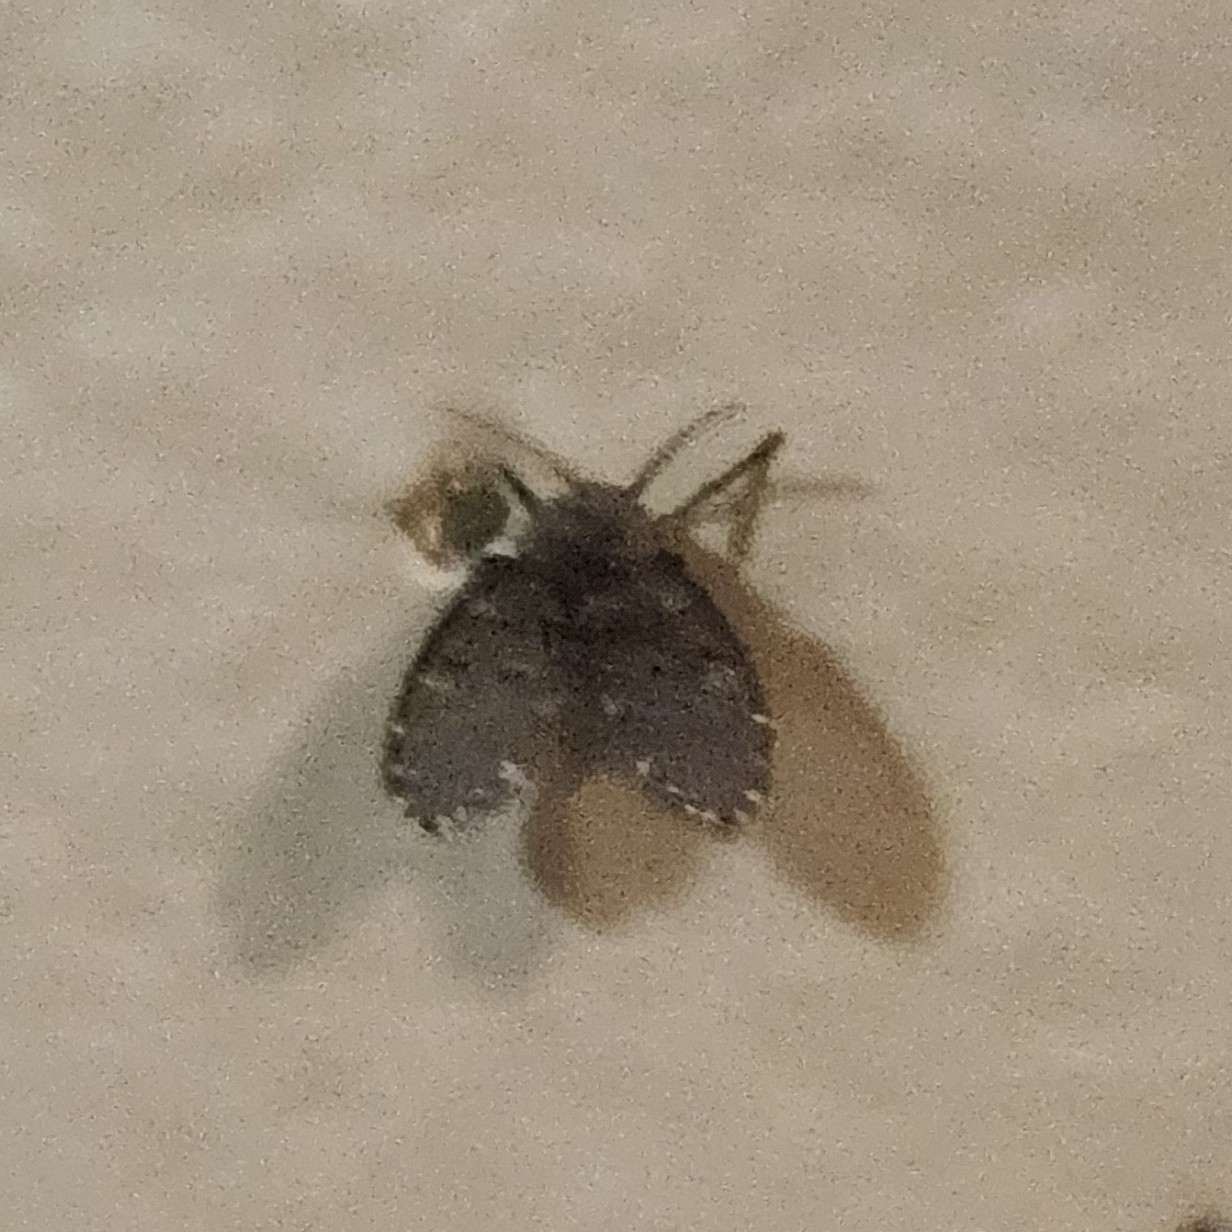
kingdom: Animalia
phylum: Arthropoda
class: Insecta
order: Diptera
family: Psychodidae
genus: Clogmia
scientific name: Clogmia albipunctatus
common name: White-spotted moth fly
